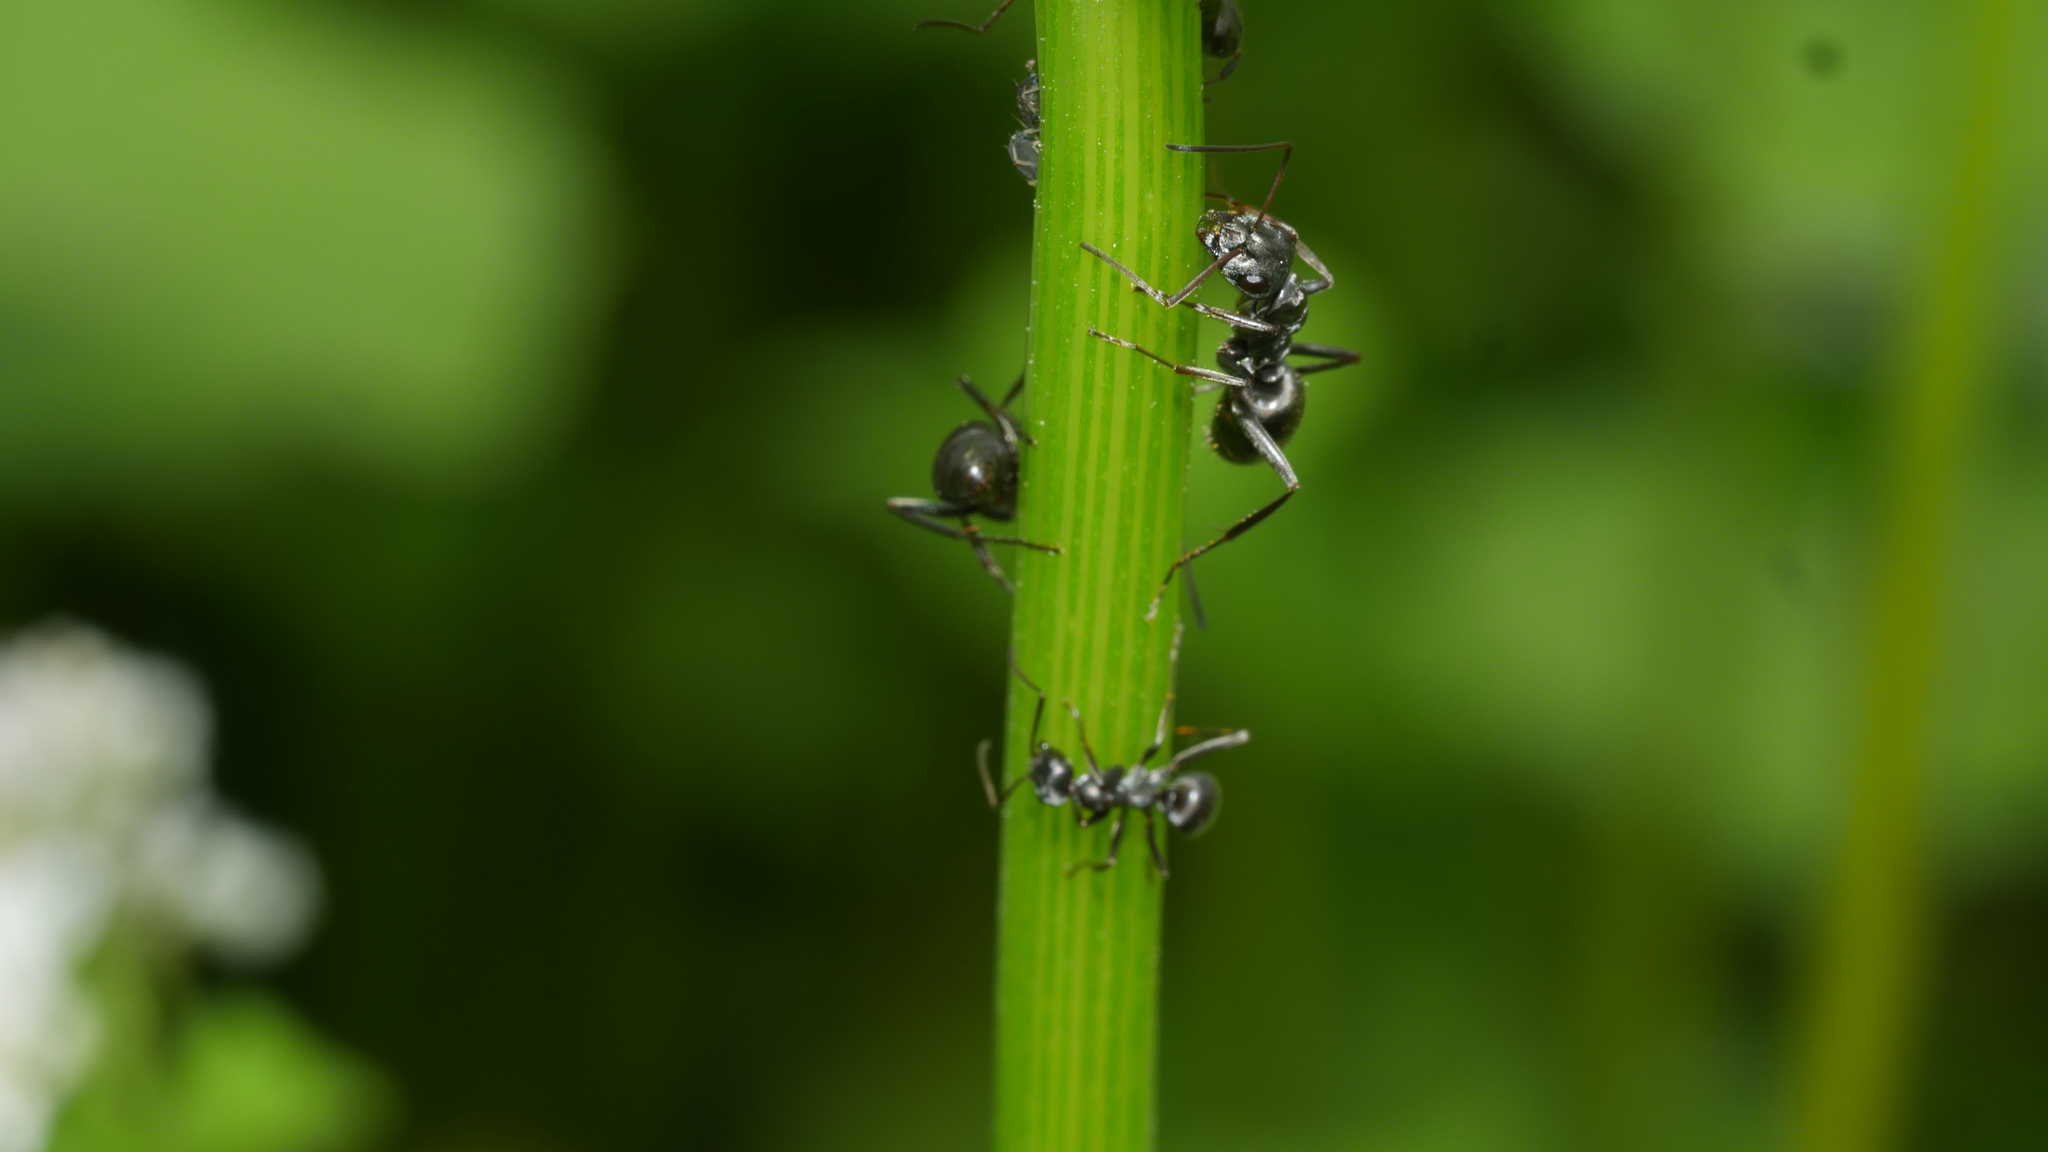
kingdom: Animalia
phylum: Arthropoda
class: Insecta
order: Hymenoptera
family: Formicidae
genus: Formica
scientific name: Formica subsericea
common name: Silky field ant
